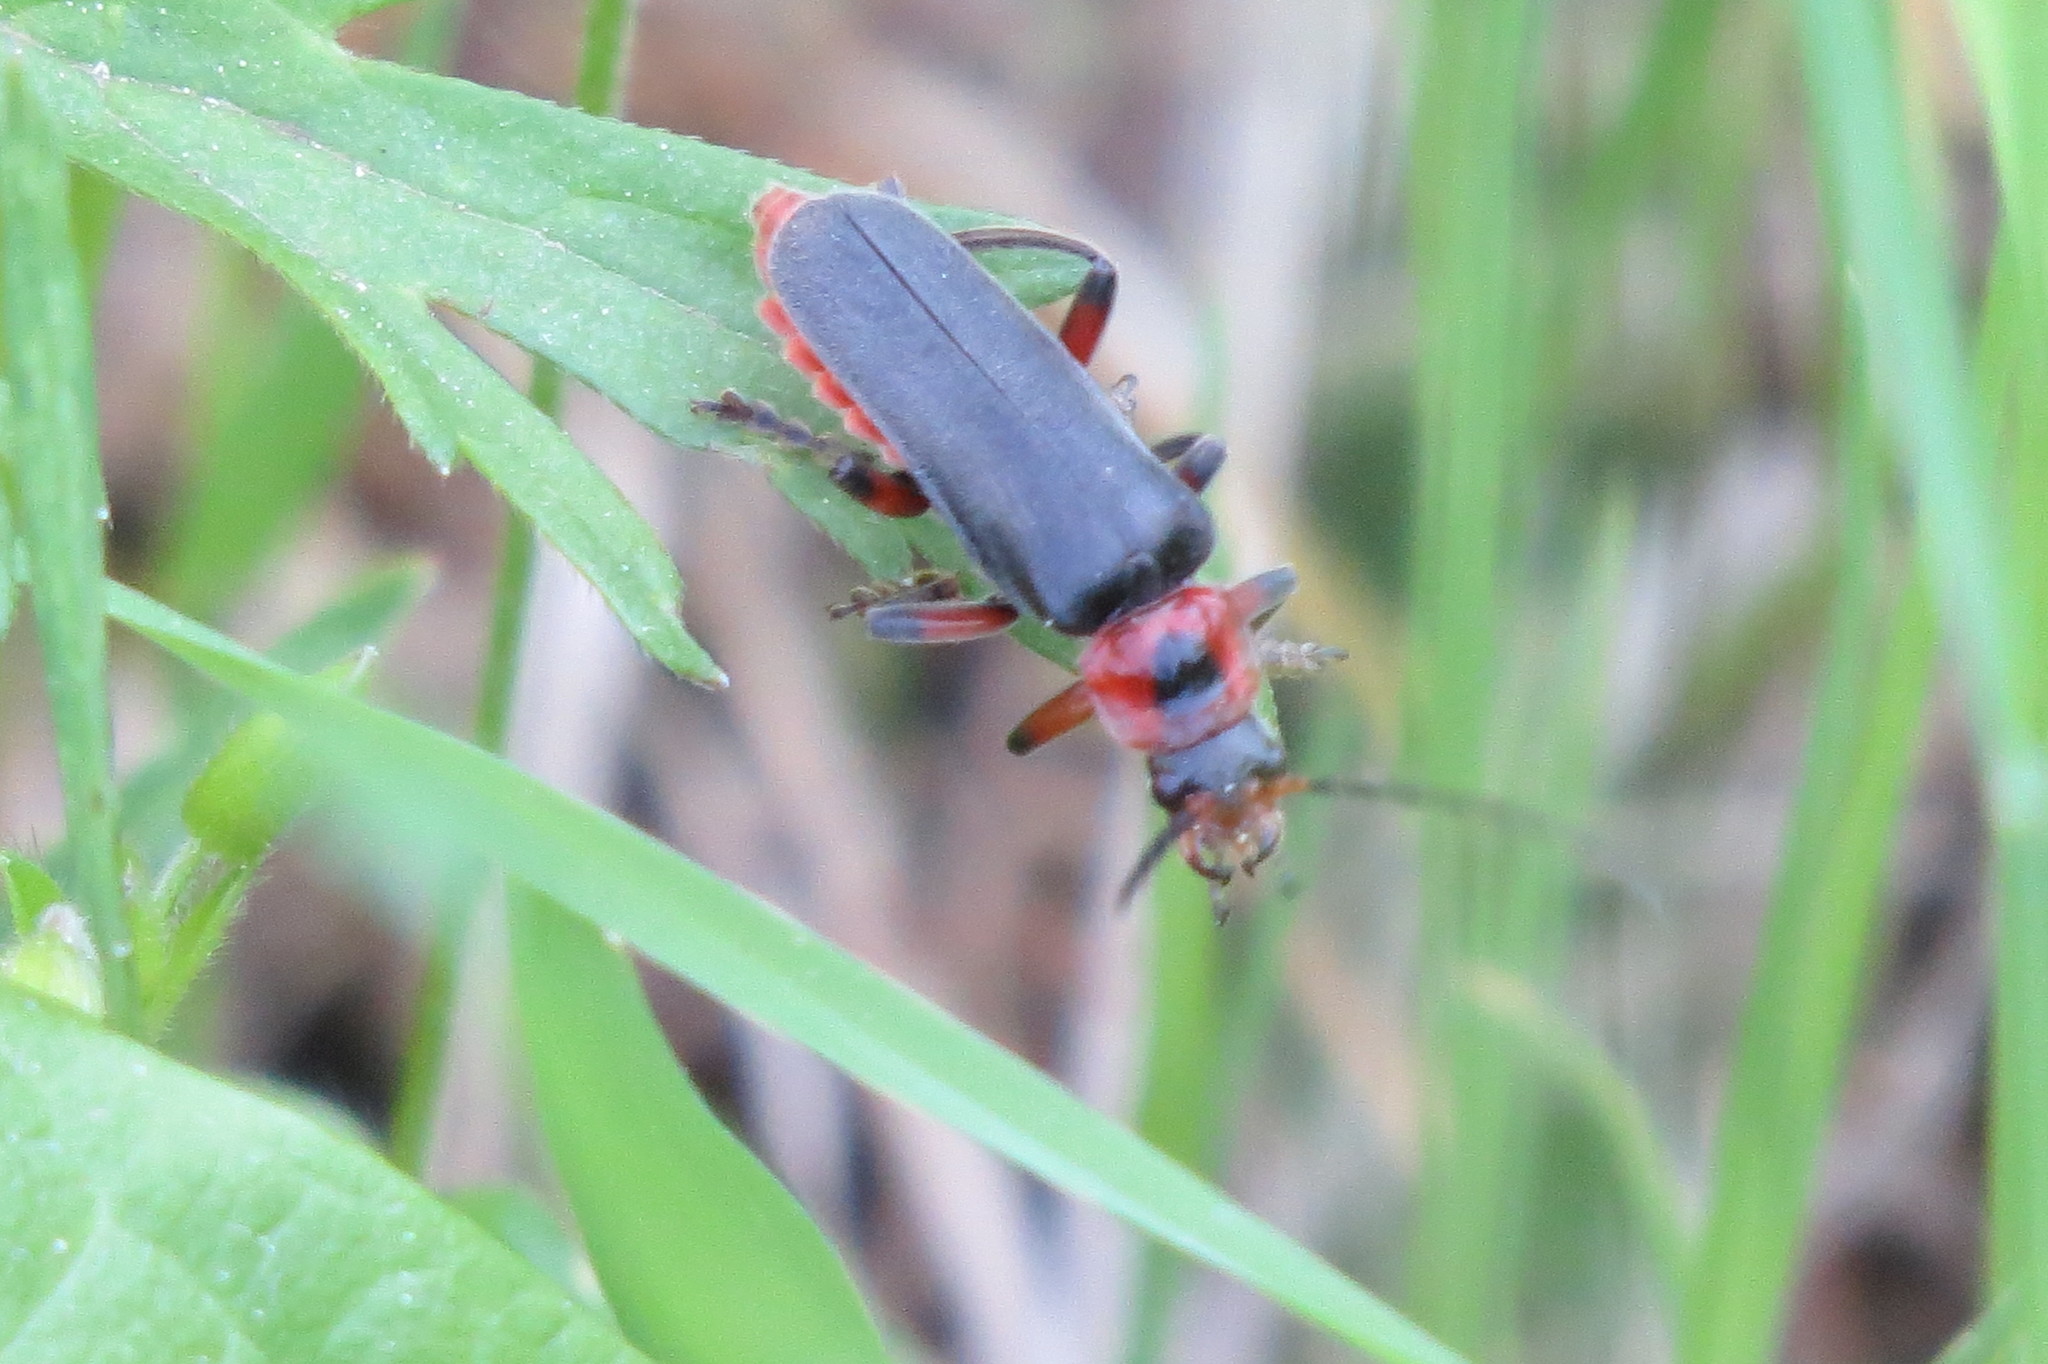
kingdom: Animalia
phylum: Arthropoda
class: Insecta
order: Coleoptera
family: Cantharidae
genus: Cantharis
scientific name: Cantharis rustica
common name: Soldier beetle
